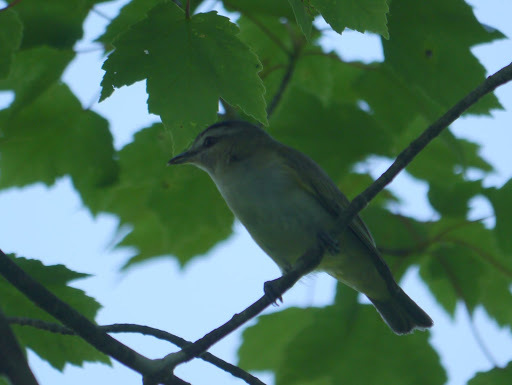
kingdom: Animalia
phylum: Chordata
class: Aves
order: Passeriformes
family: Vireonidae
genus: Vireo
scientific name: Vireo olivaceus
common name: Red-eyed vireo
